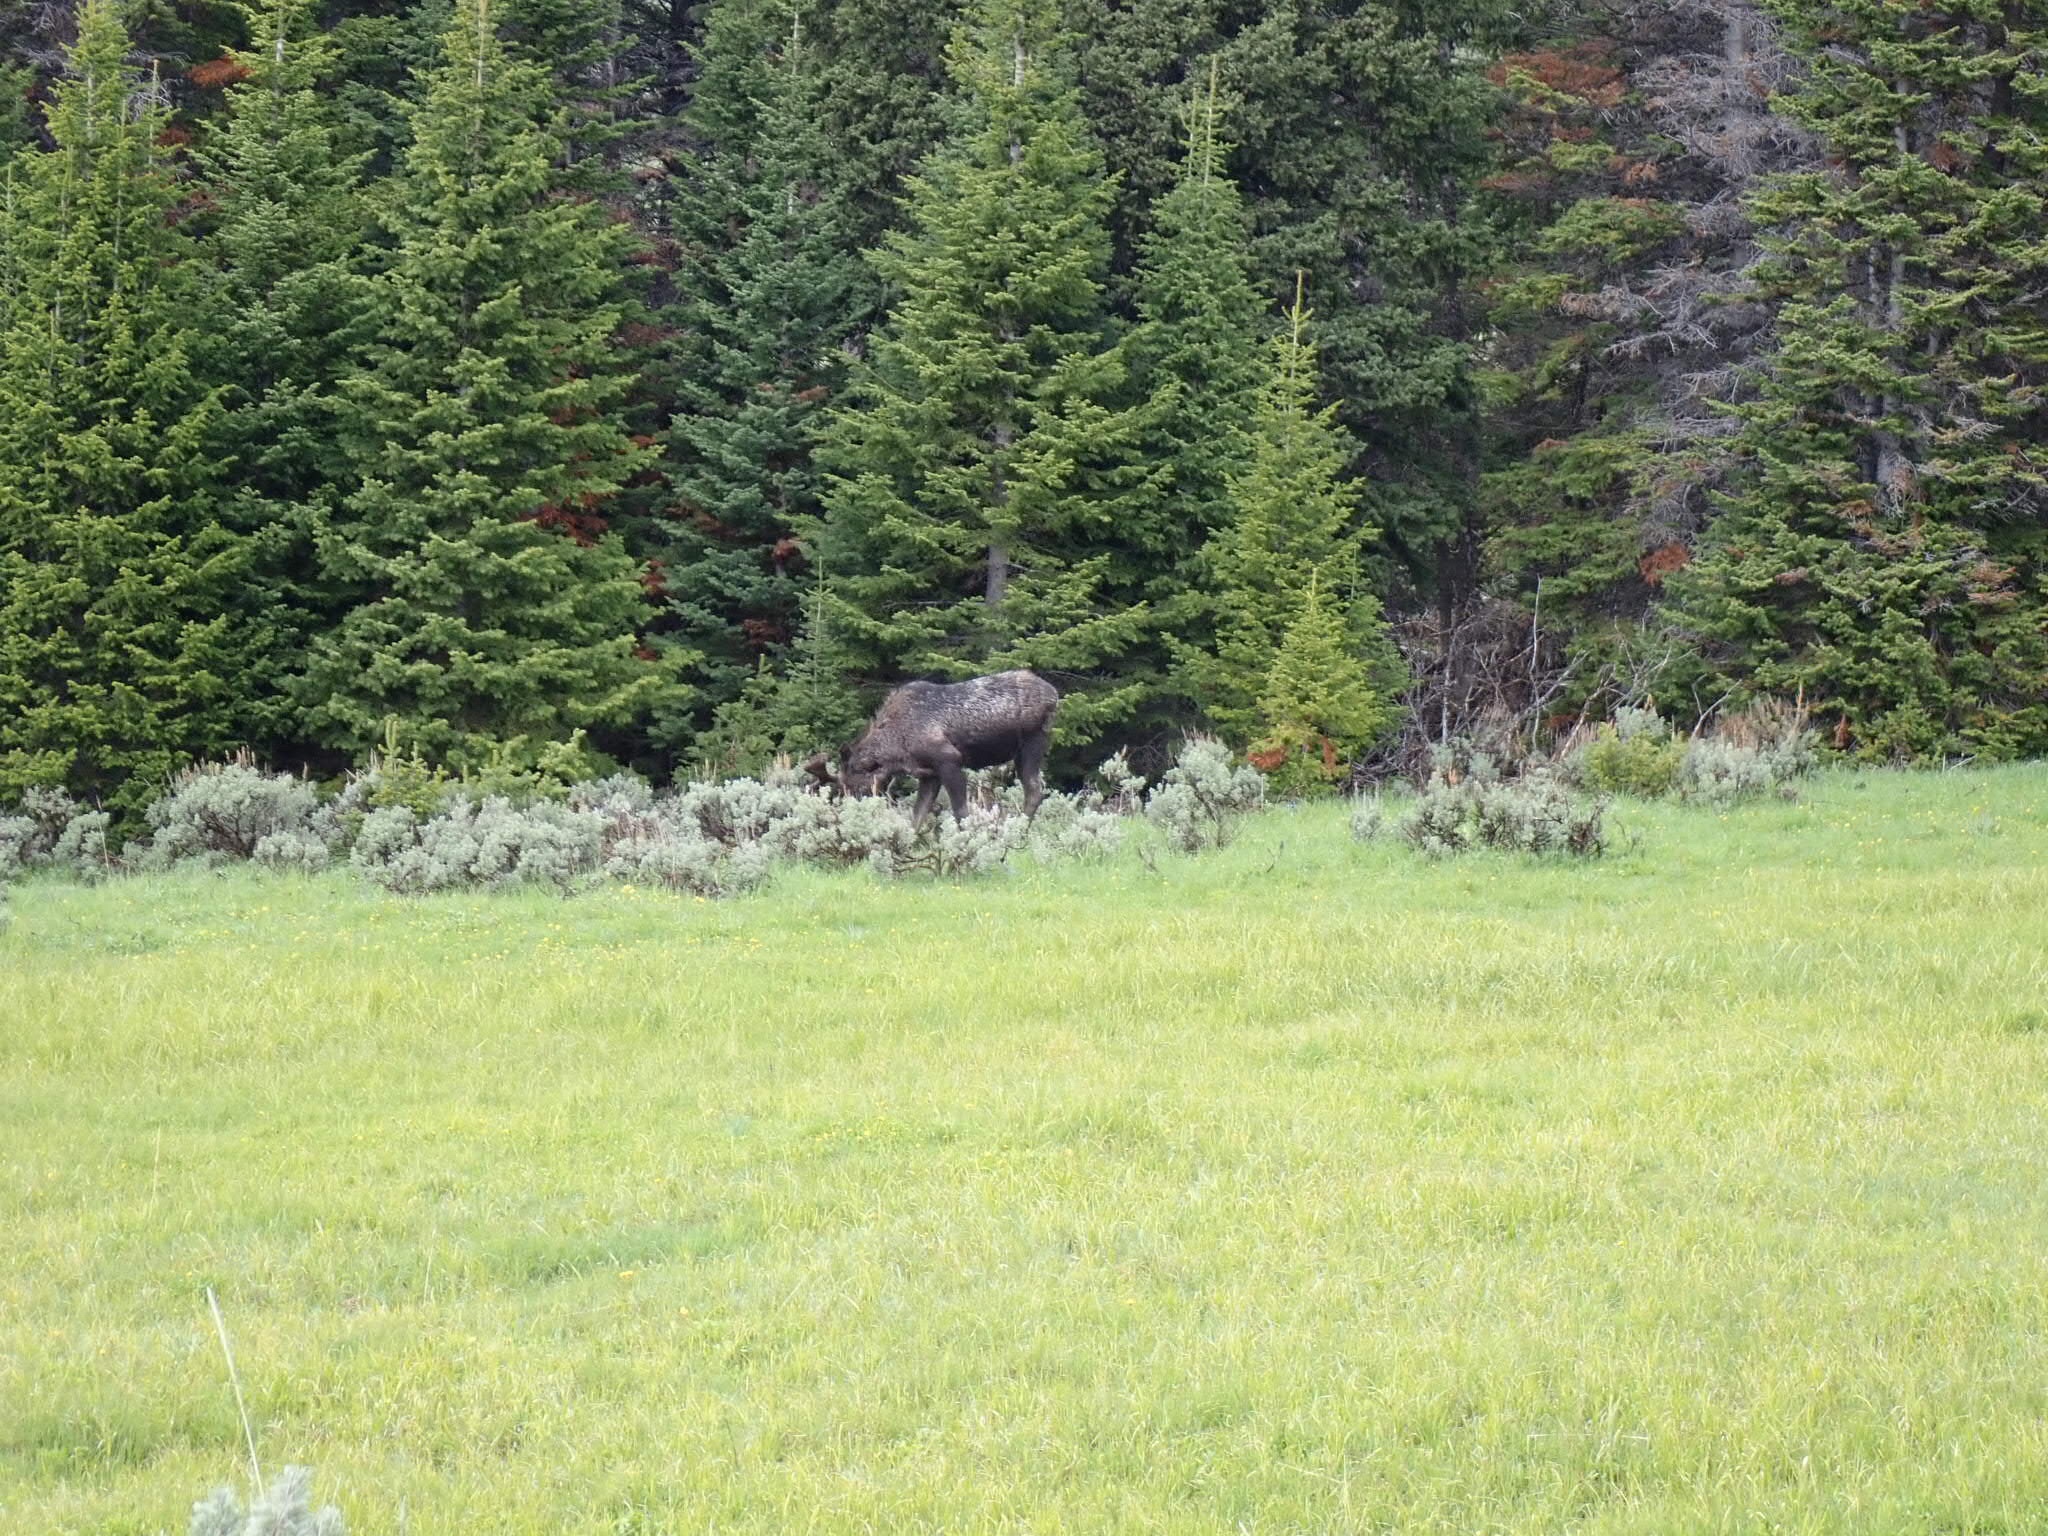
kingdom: Animalia
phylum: Chordata
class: Mammalia
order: Artiodactyla
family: Cervidae
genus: Alces
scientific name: Alces alces
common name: Moose
